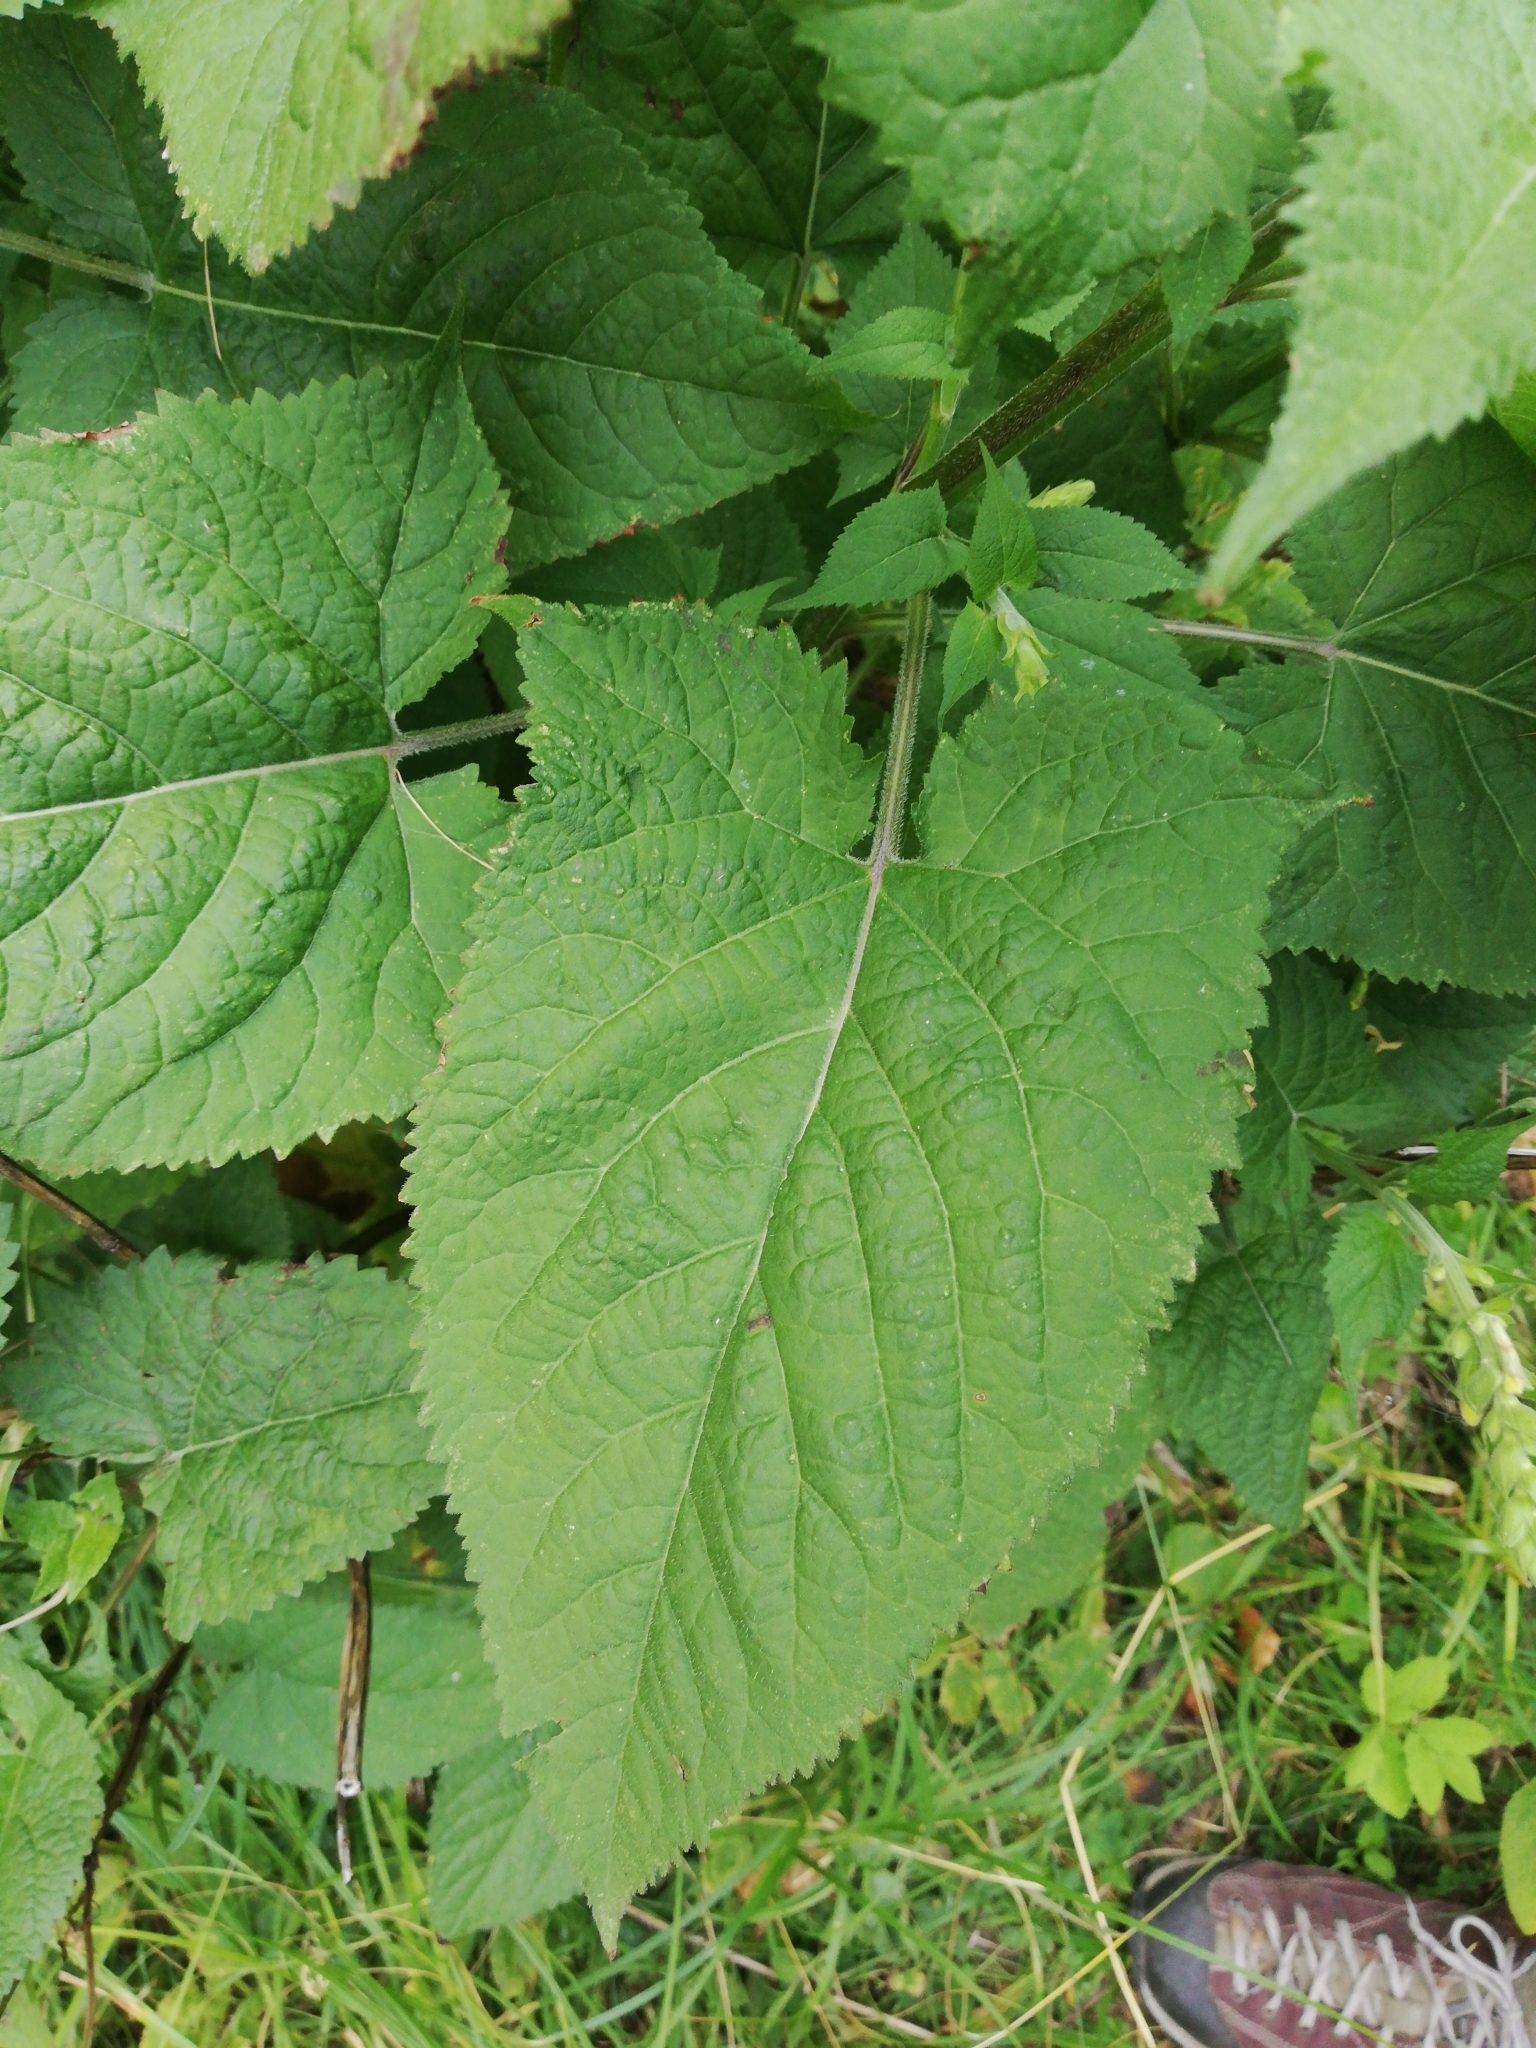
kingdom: Plantae
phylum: Tracheophyta
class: Magnoliopsida
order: Lamiales
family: Lamiaceae
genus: Salvia
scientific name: Salvia glutinosa
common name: Sticky clary
